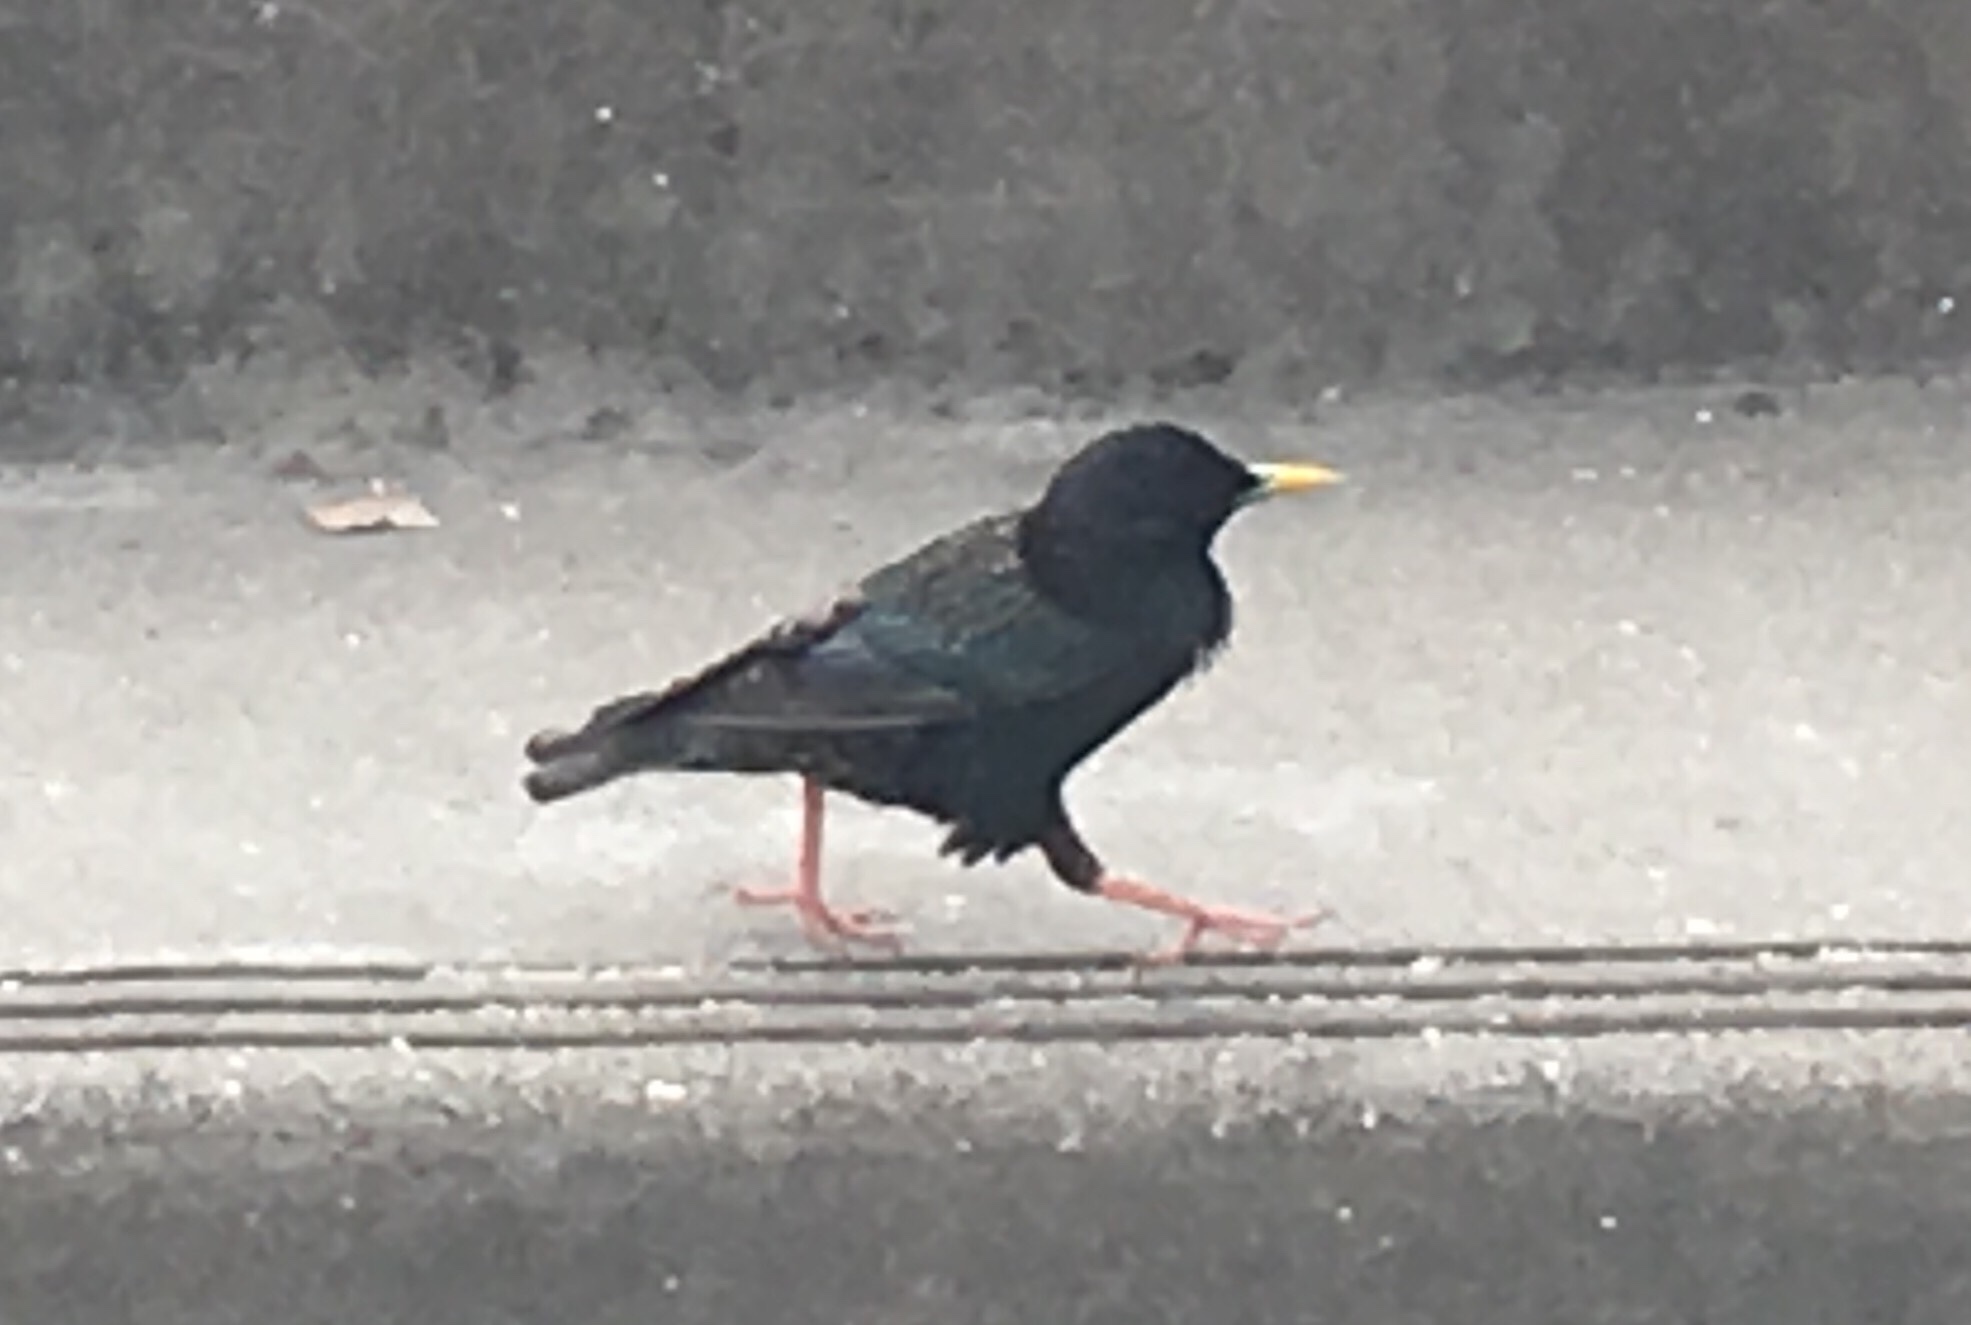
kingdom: Animalia
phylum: Chordata
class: Aves
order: Passeriformes
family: Sturnidae
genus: Sturnus
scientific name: Sturnus vulgaris
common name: Common starling
